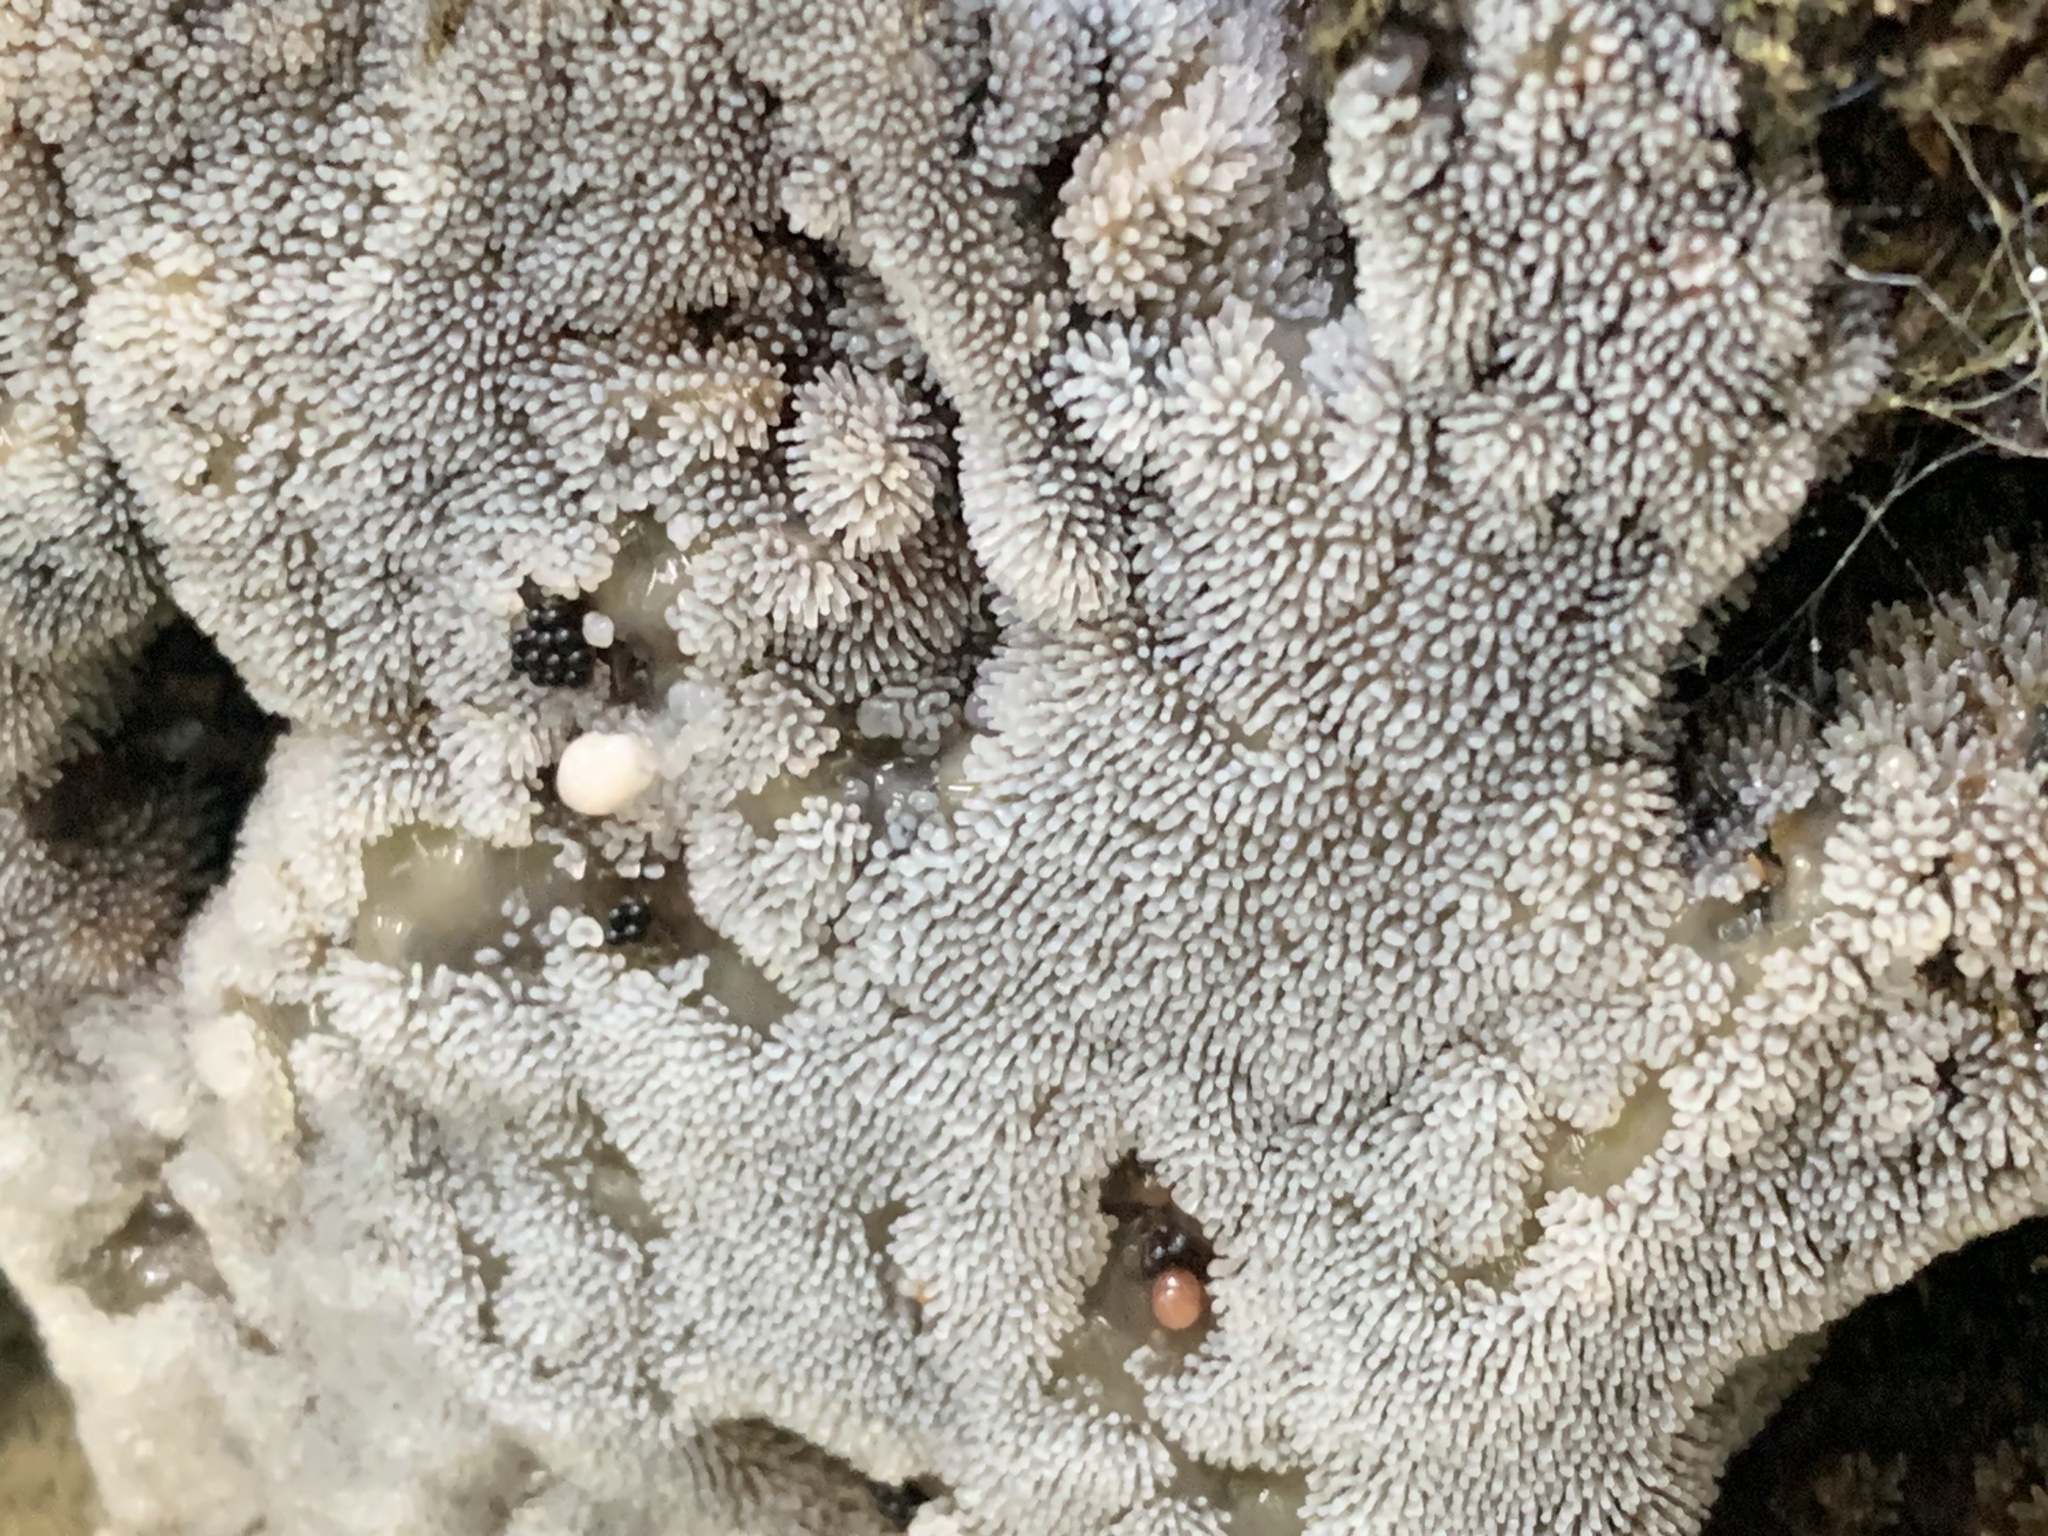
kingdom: Protozoa
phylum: Mycetozoa
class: Protosteliomycetes
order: Ceratiomyxales
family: Ceratiomyxaceae
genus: Ceratiomyxa
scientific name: Ceratiomyxa fruticulosa
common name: Honeycomb coral slime mold
